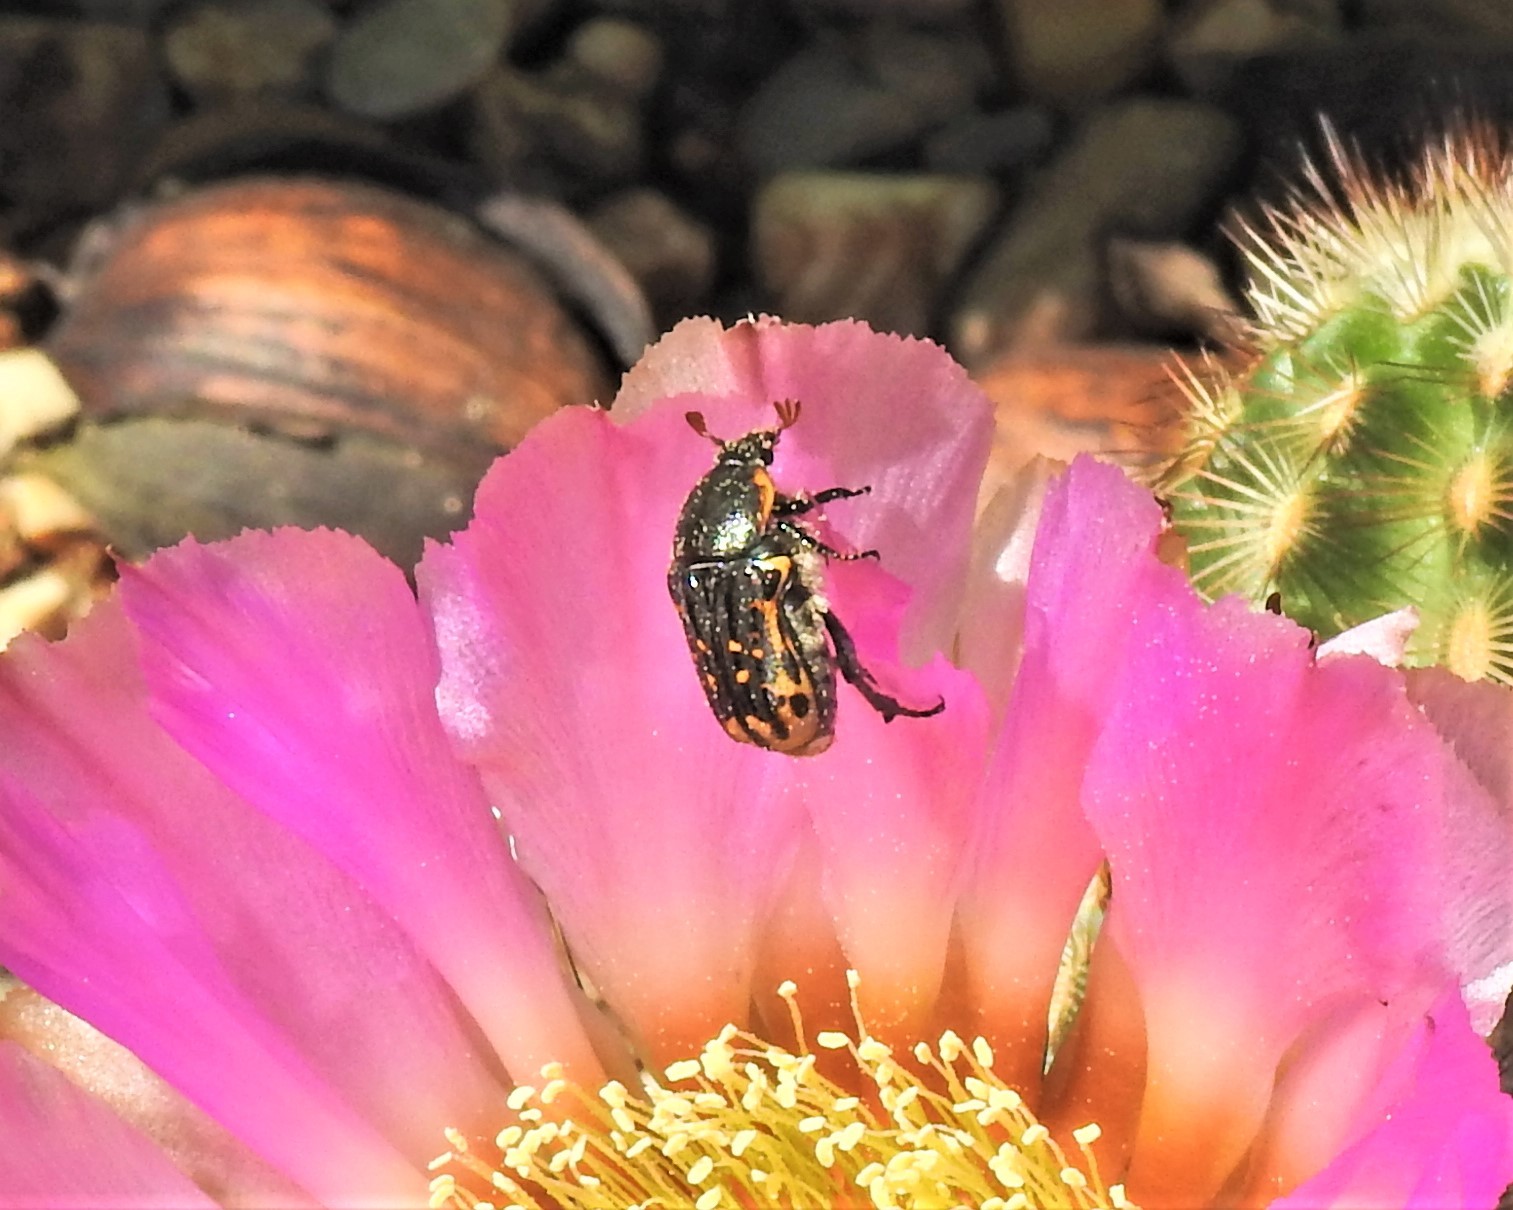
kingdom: Animalia
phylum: Arthropoda
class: Insecta
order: Coleoptera
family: Scarabaeidae
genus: Euphoria
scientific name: Euphoria kernii
